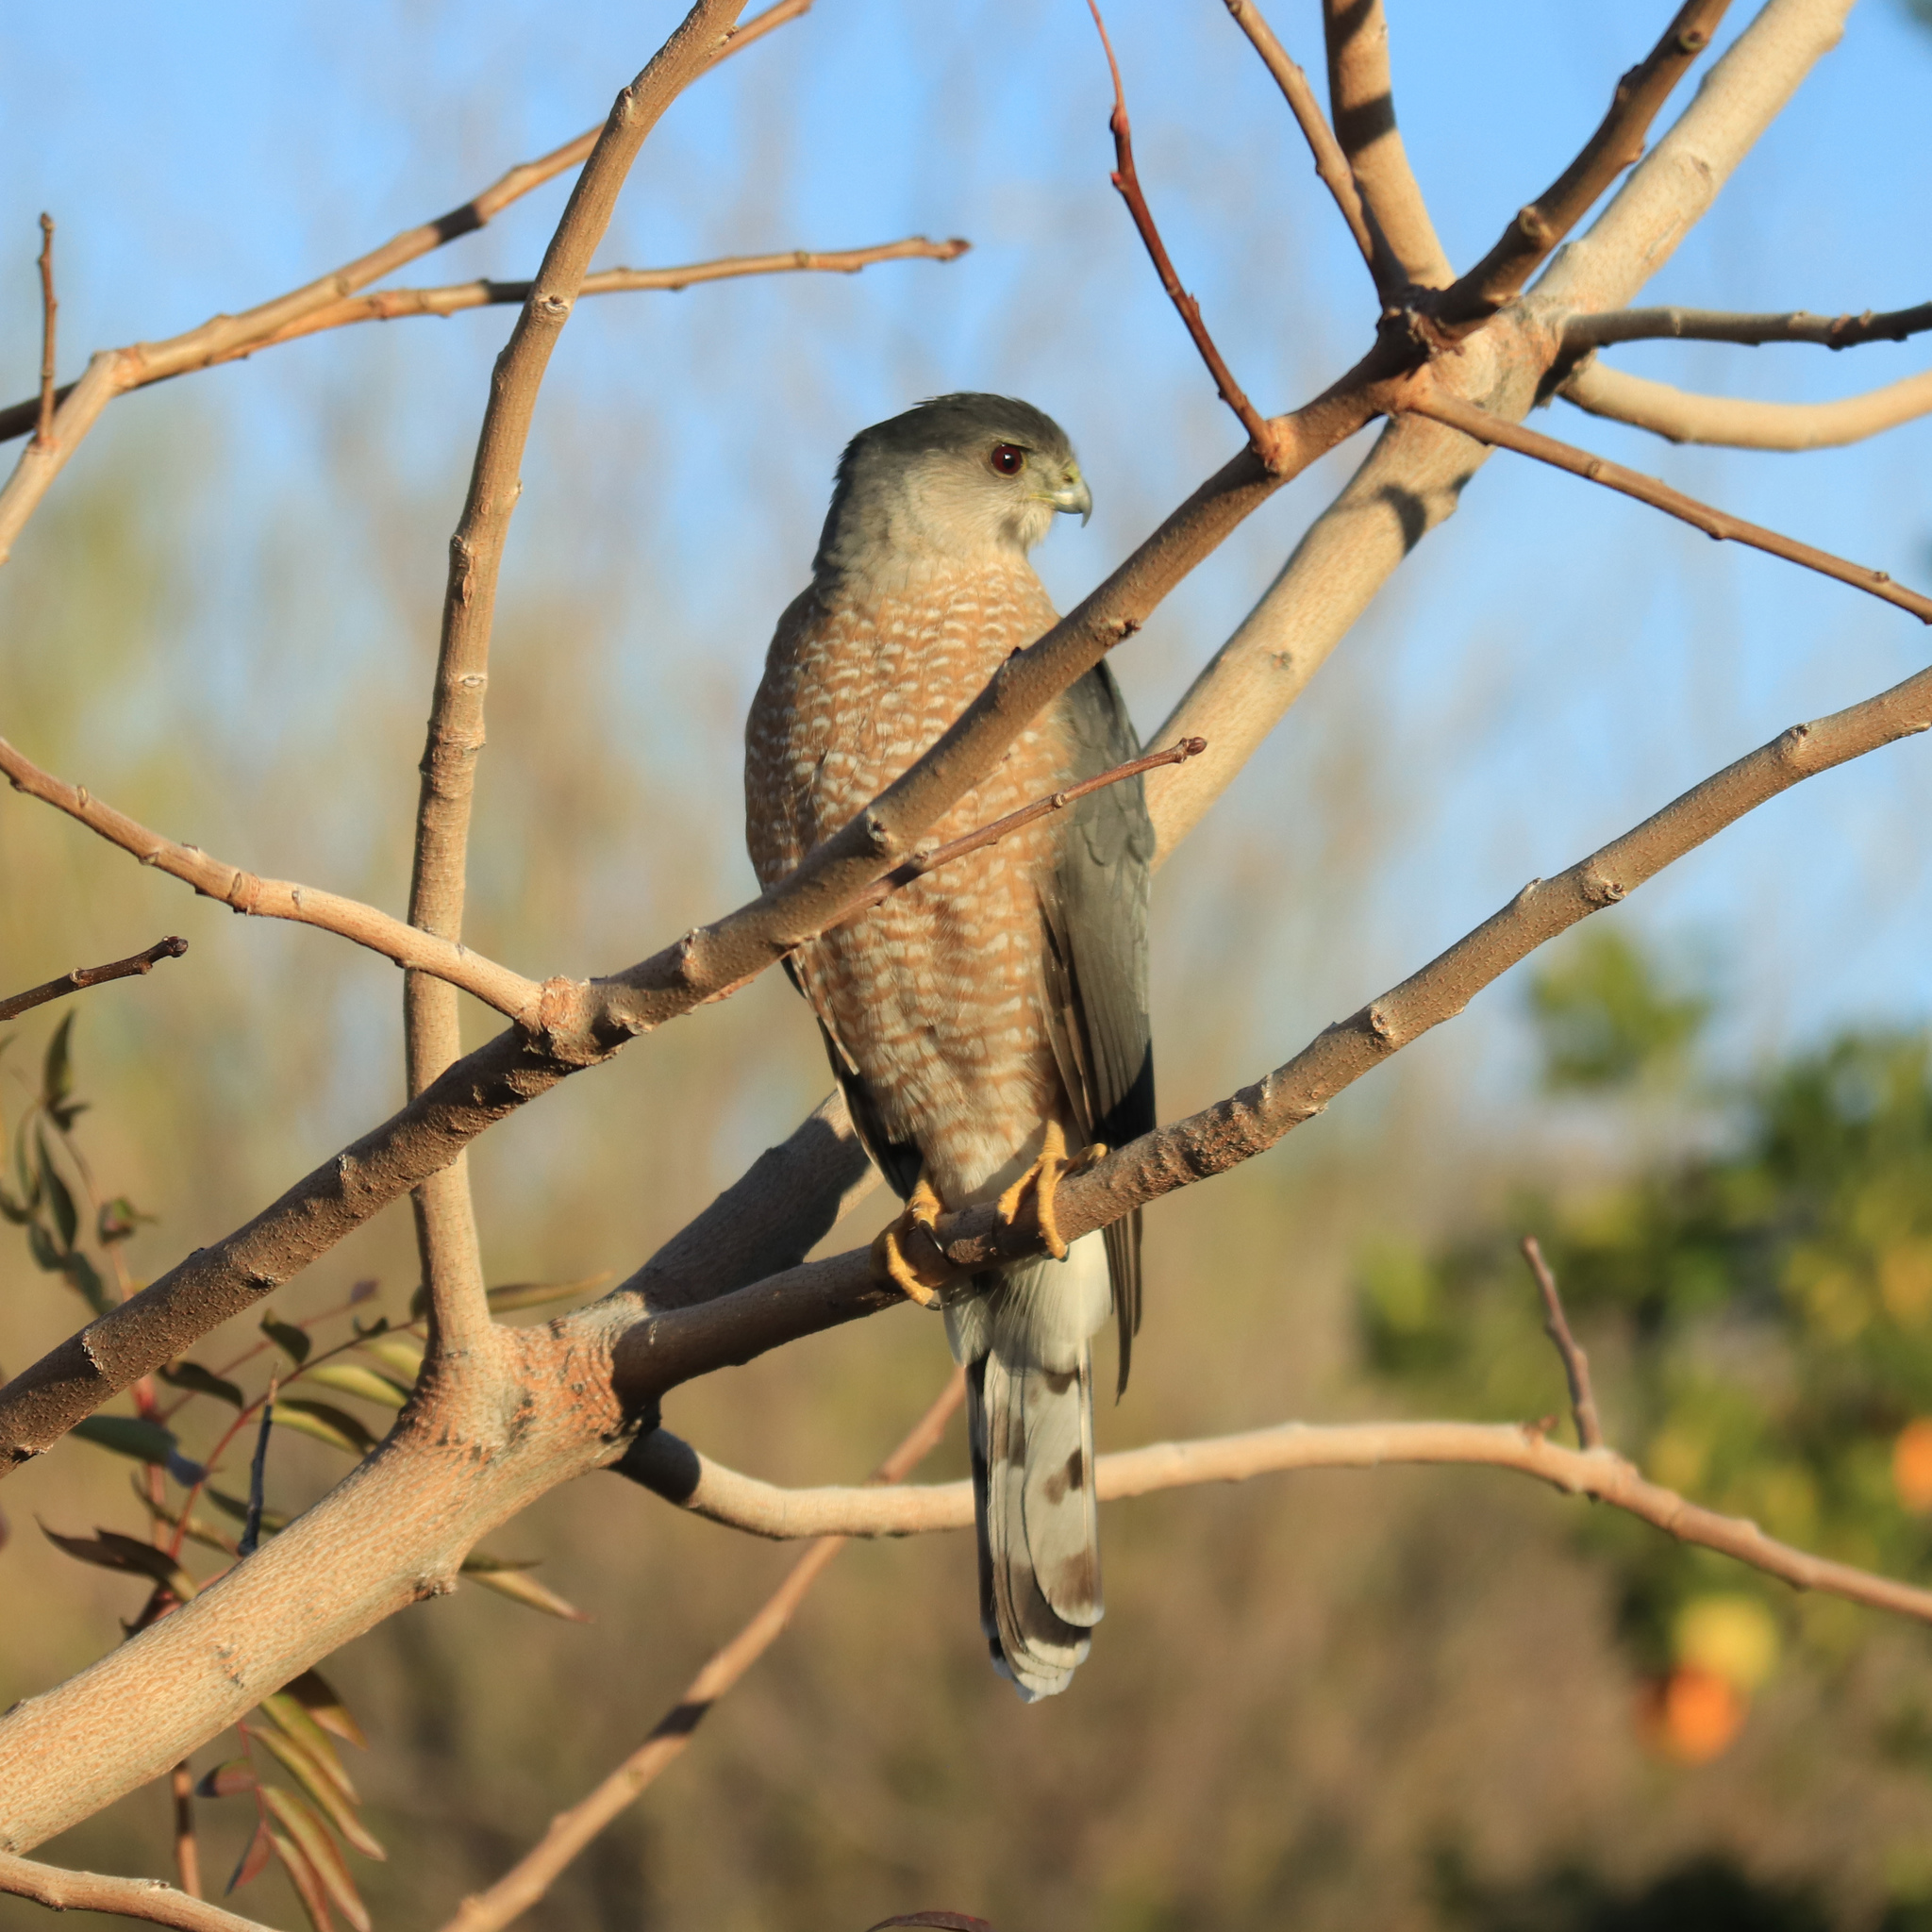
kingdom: Animalia
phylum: Chordata
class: Aves
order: Accipitriformes
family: Accipitridae
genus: Accipiter
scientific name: Accipiter cooperii
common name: Cooper's hawk
